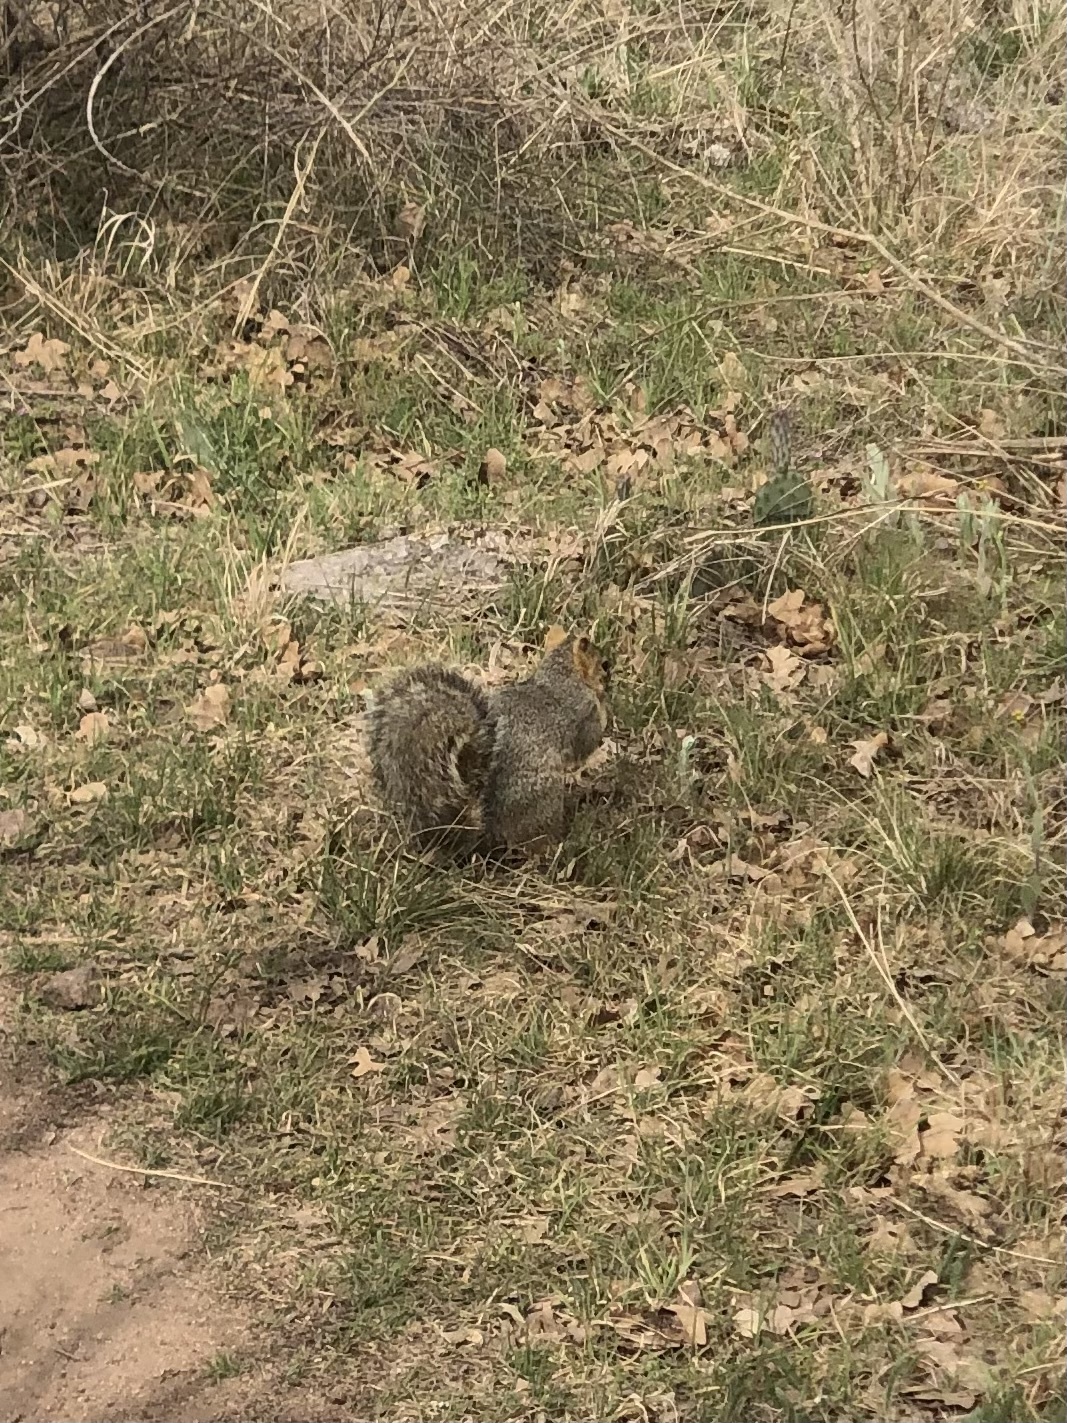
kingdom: Animalia
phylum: Chordata
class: Mammalia
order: Rodentia
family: Sciuridae
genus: Sciurus
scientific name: Sciurus niger
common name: Fox squirrel
